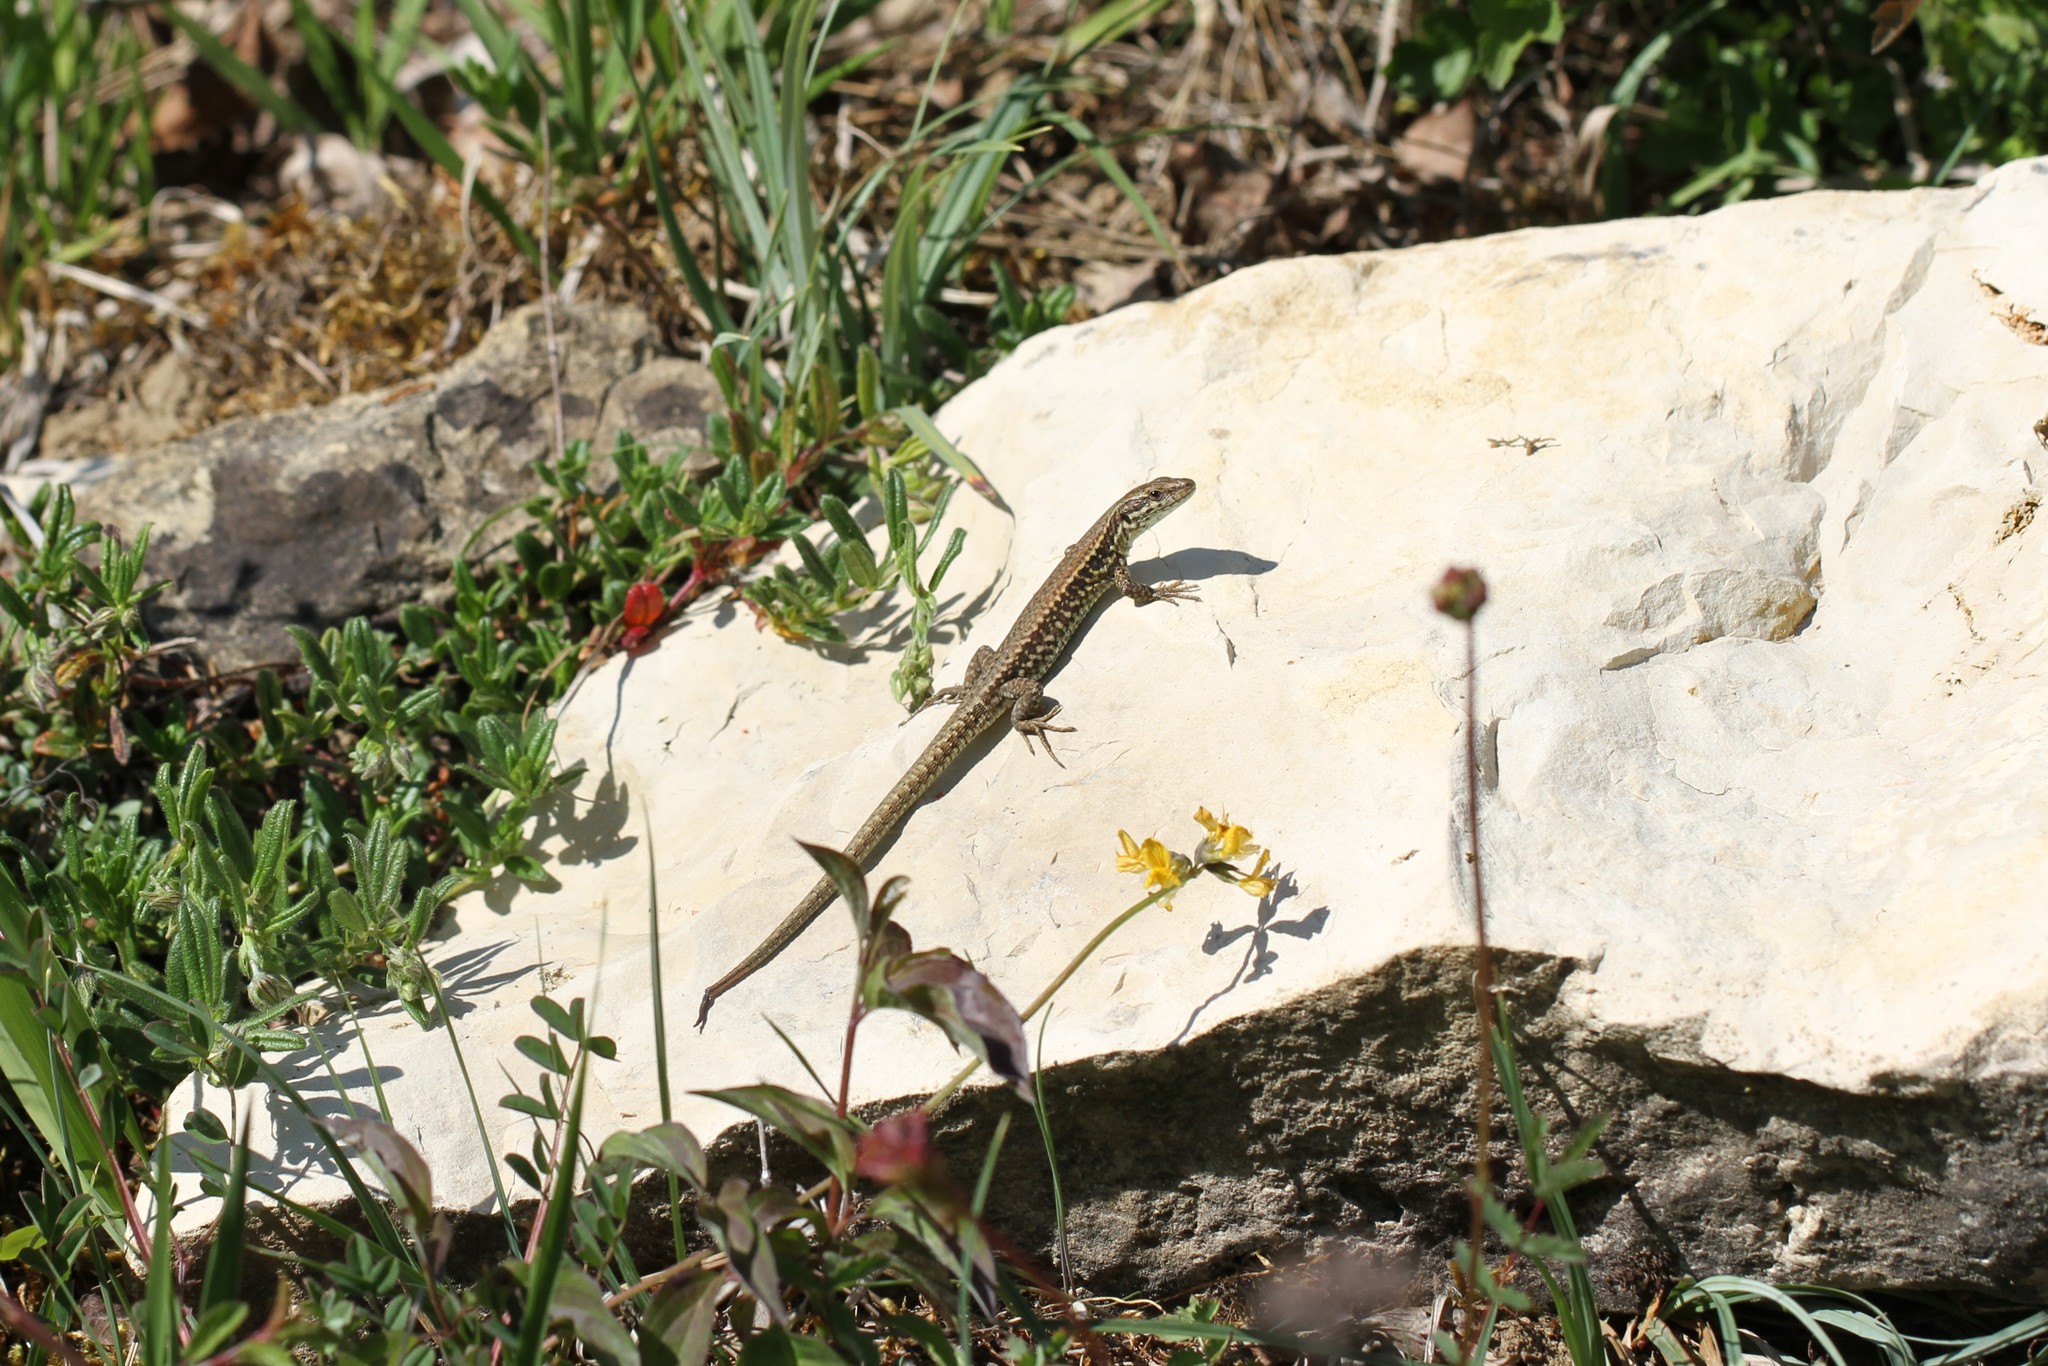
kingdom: Animalia
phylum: Chordata
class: Squamata
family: Lacertidae
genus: Podarcis
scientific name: Podarcis muralis
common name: Common wall lizard
